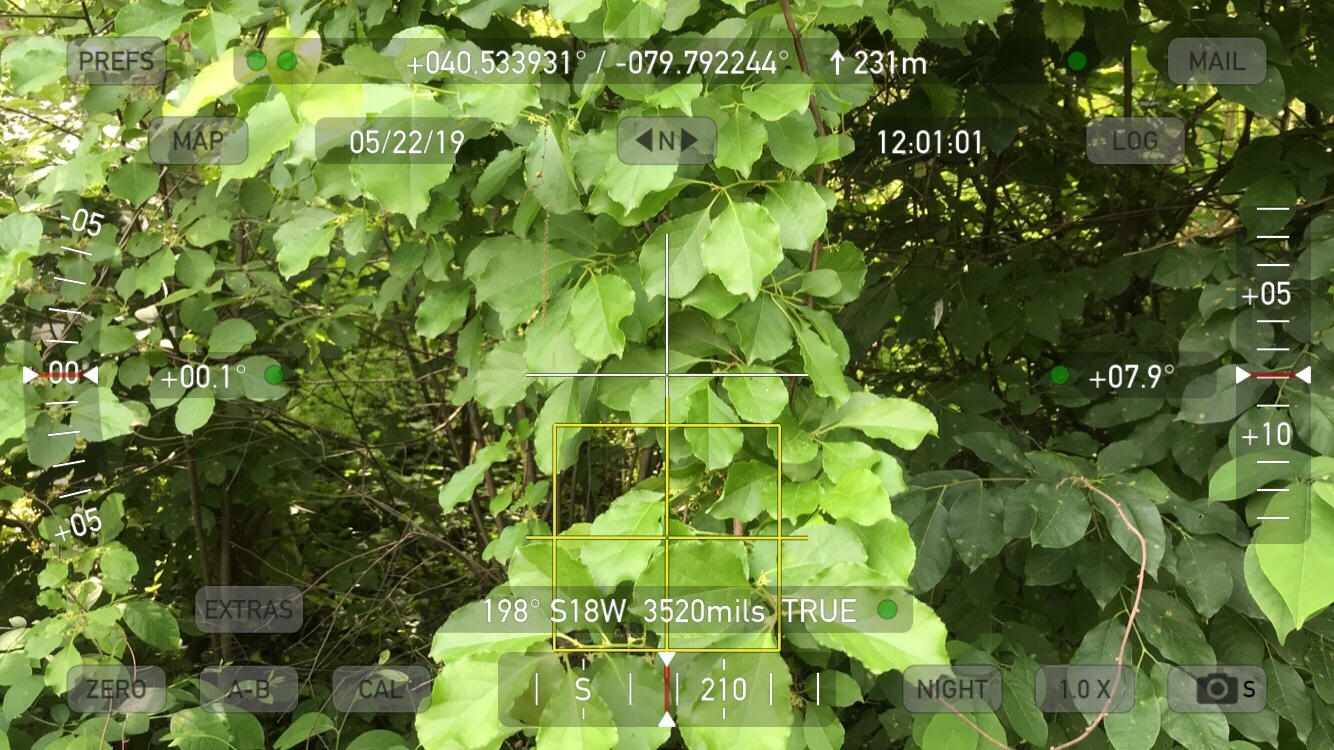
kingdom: Plantae
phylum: Tracheophyta
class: Magnoliopsida
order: Celastrales
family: Celastraceae
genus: Celastrus
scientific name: Celastrus orbiculatus
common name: Oriental bittersweet
